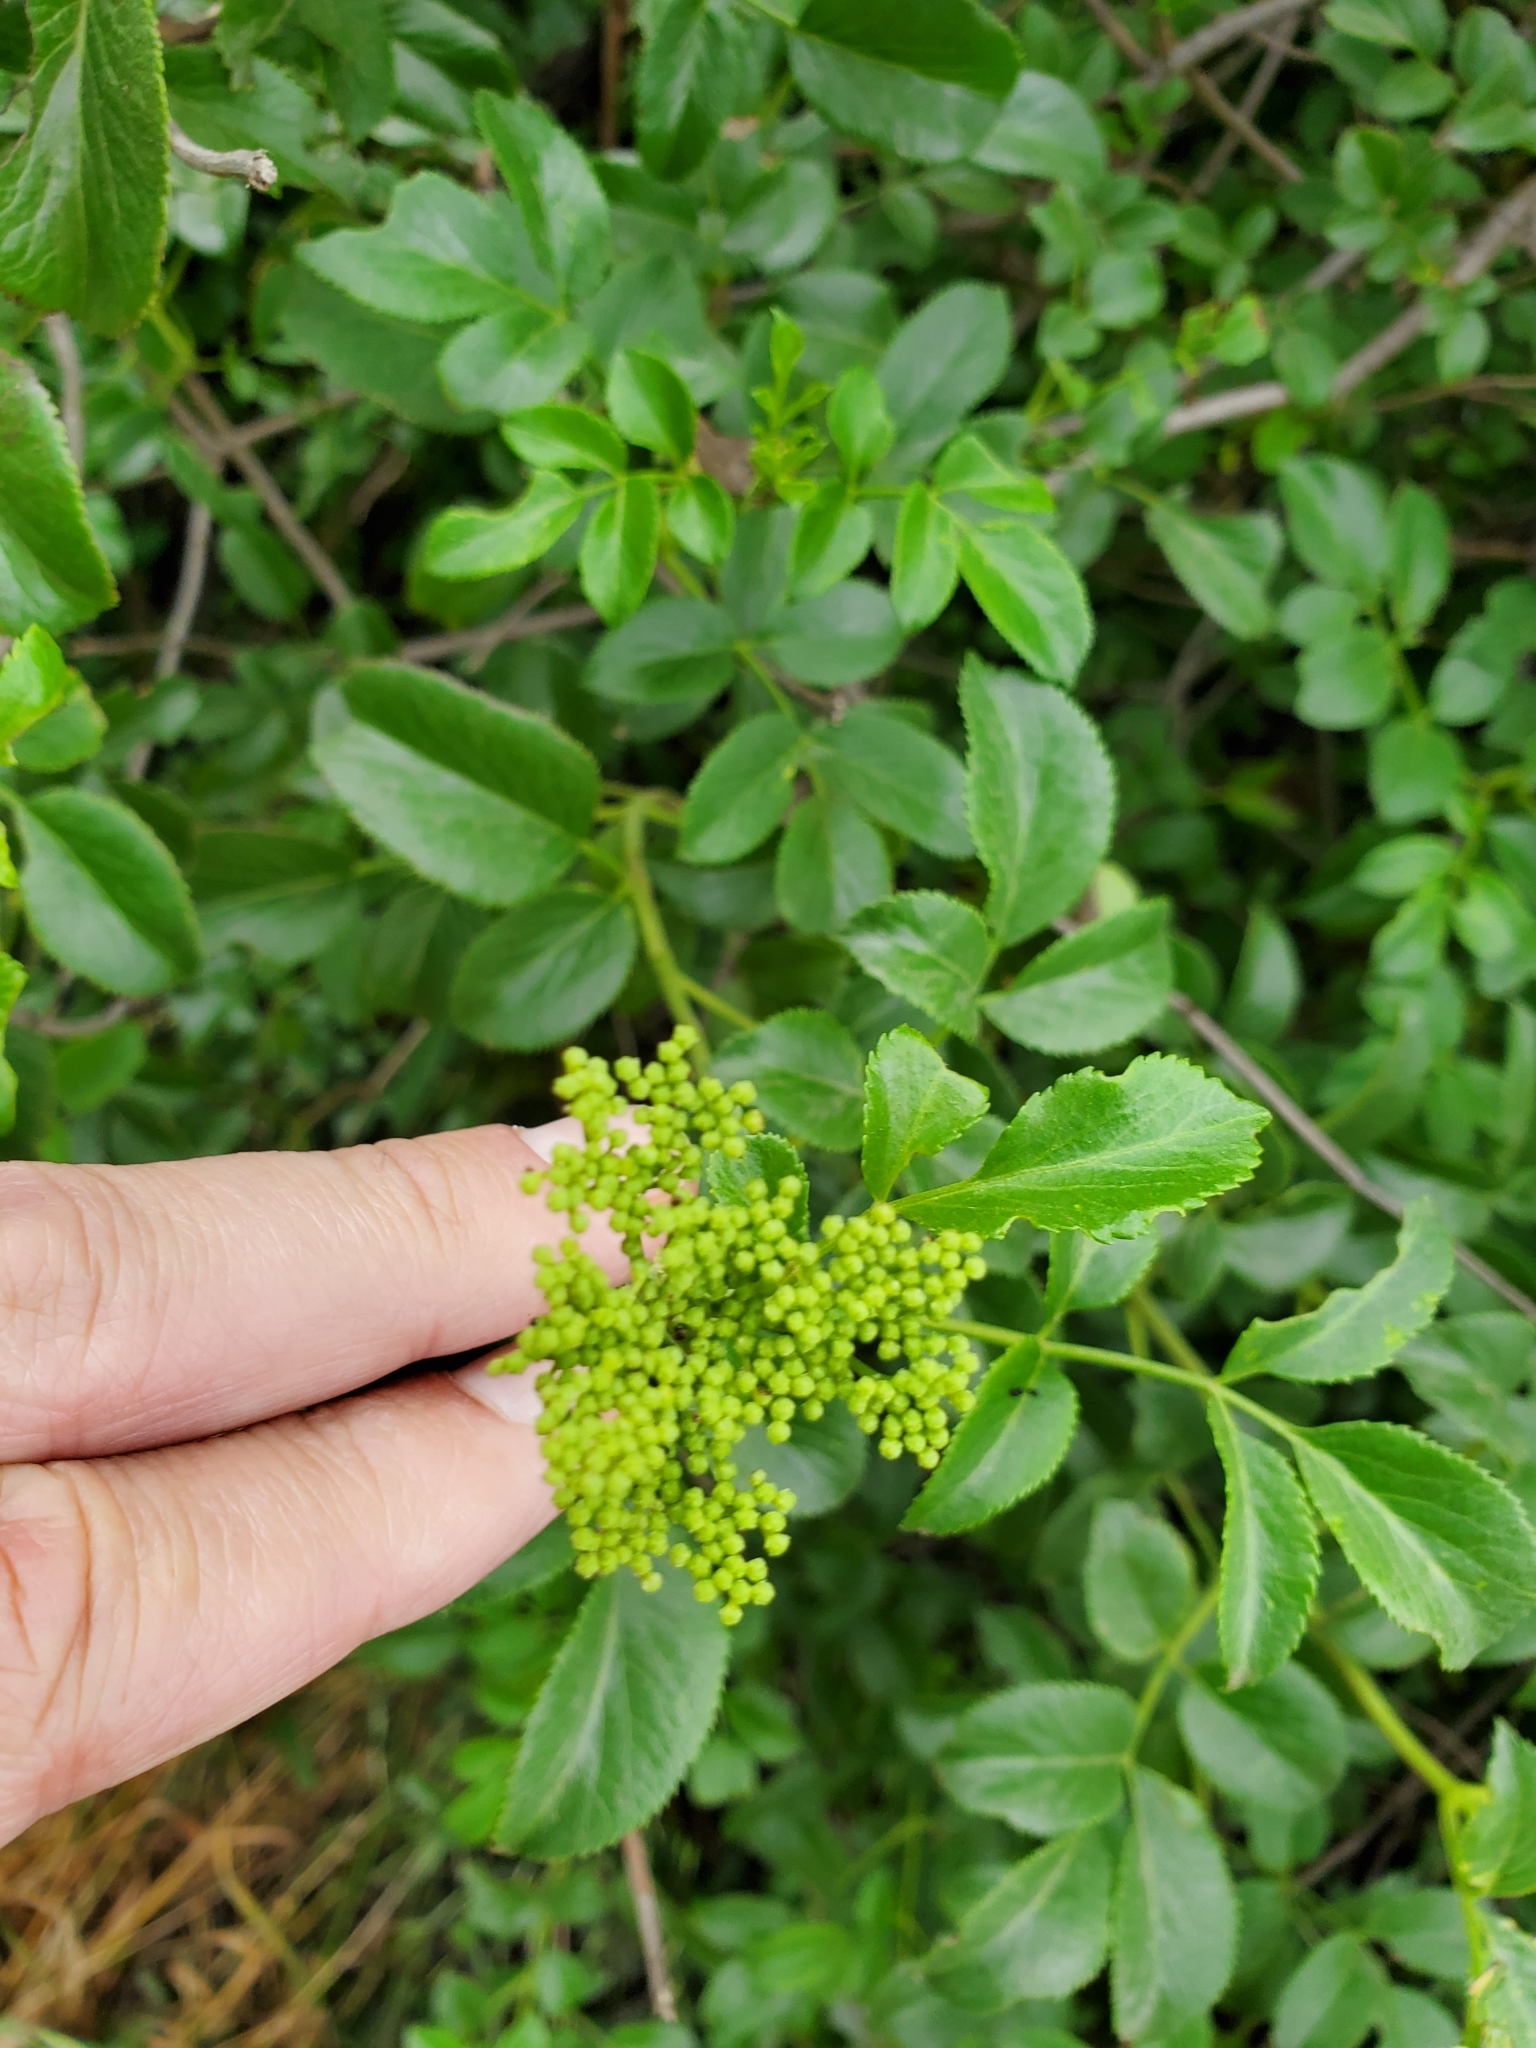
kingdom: Plantae
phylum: Tracheophyta
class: Magnoliopsida
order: Dipsacales
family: Viburnaceae
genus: Sambucus
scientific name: Sambucus cerulea
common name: Blue elder
